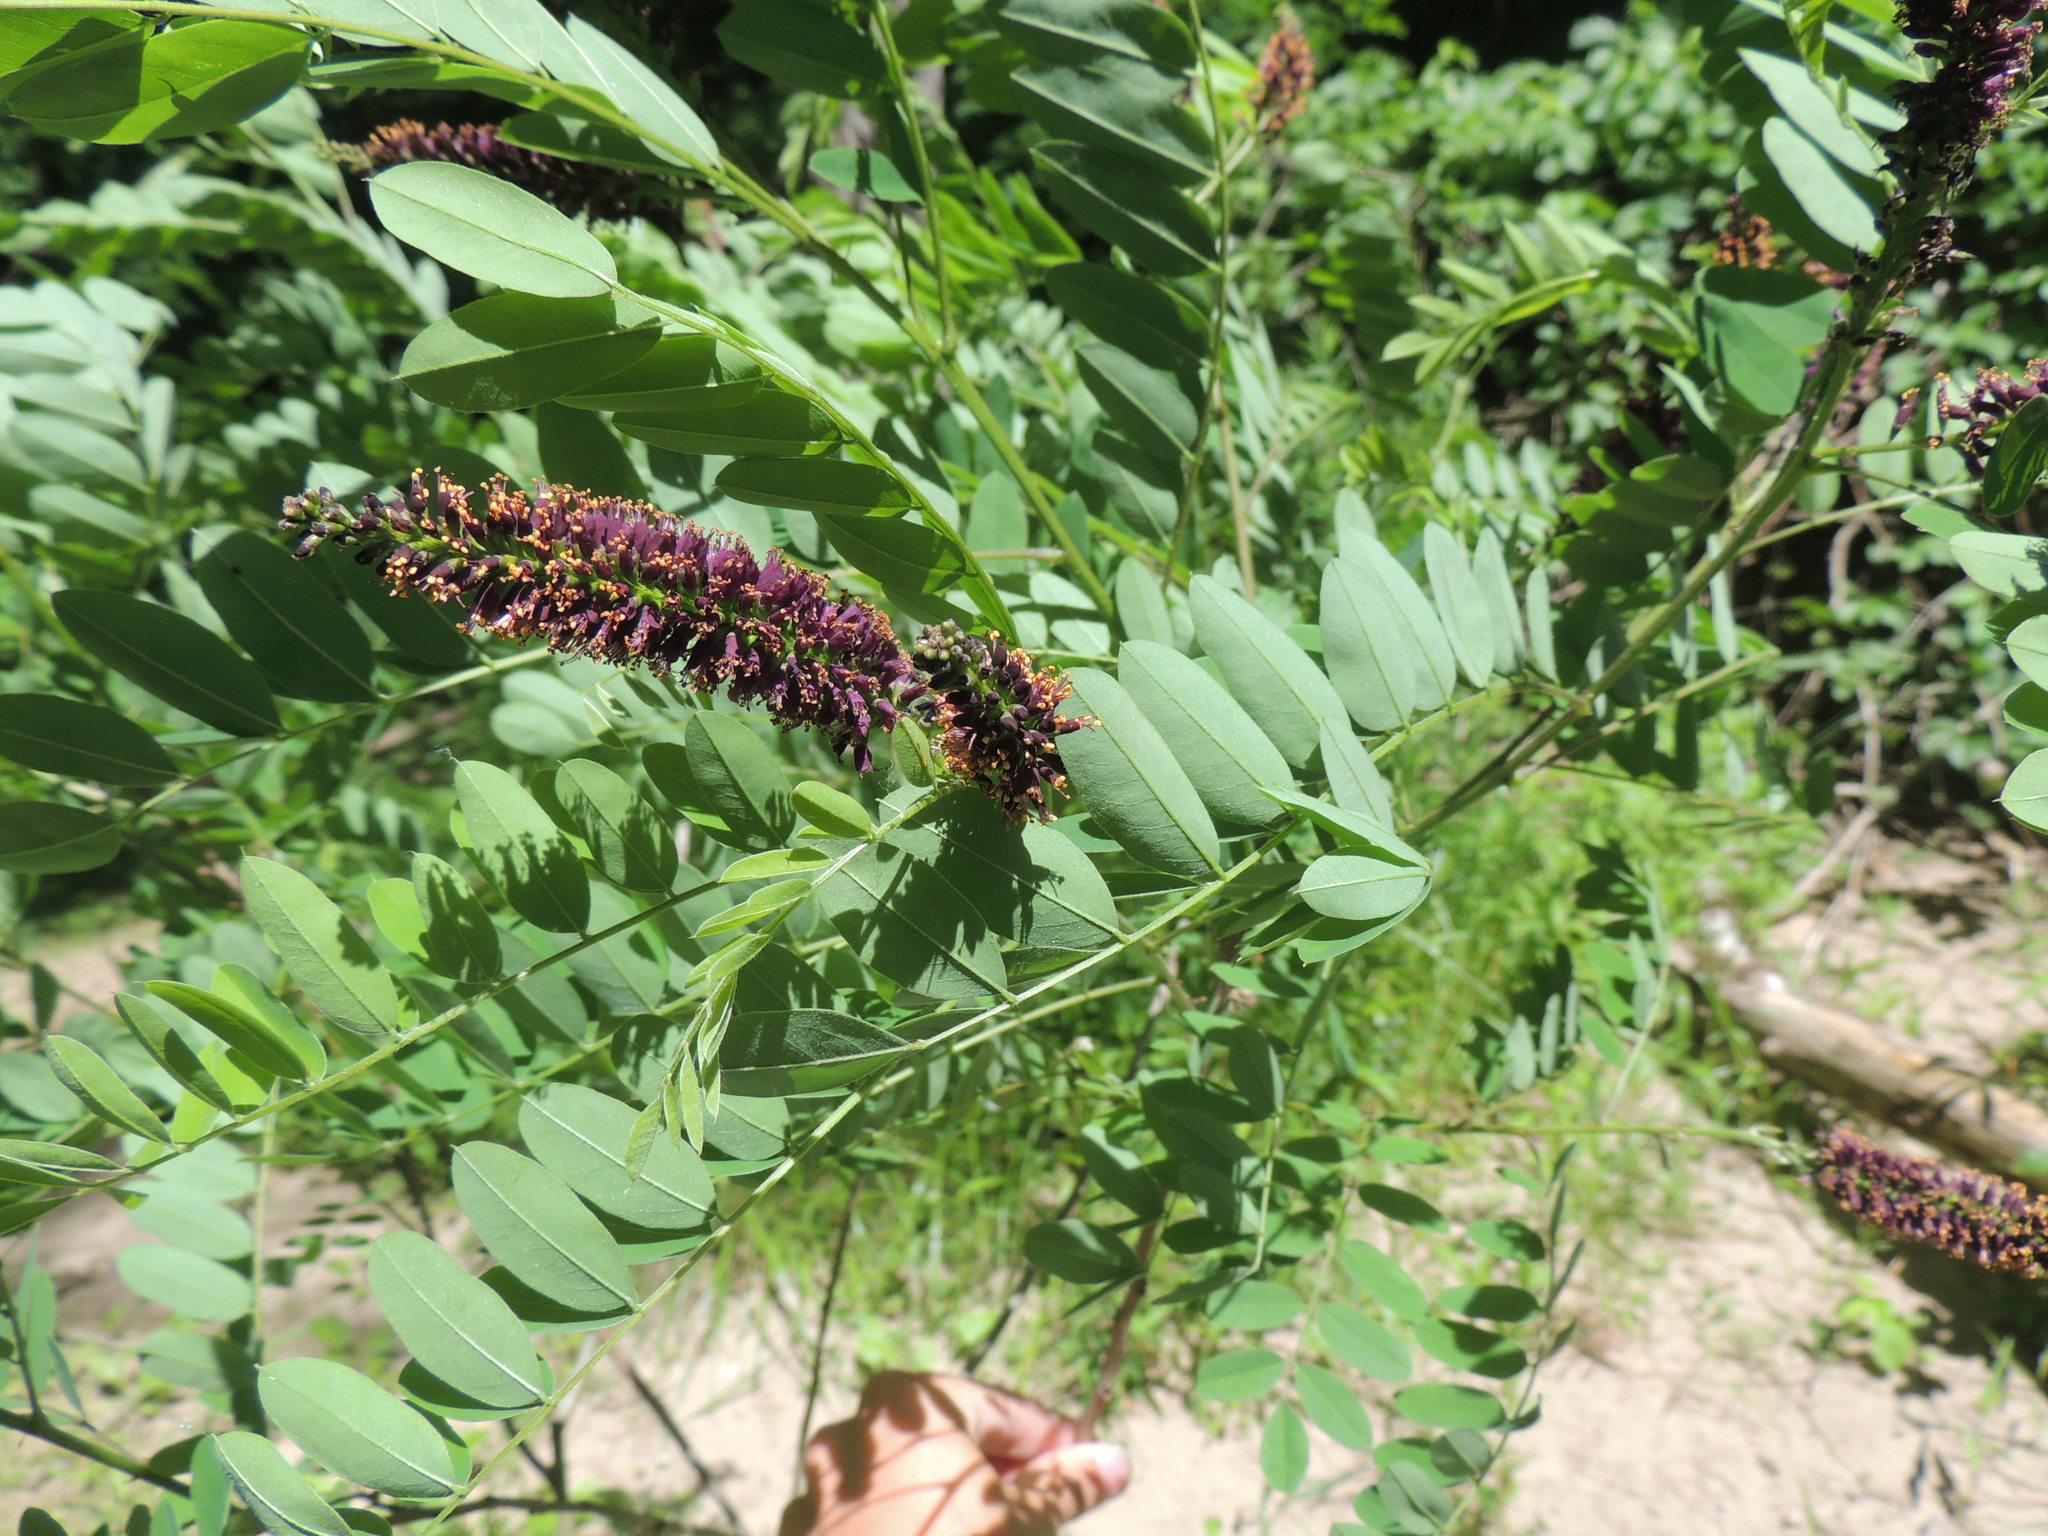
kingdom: Plantae
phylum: Tracheophyta
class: Magnoliopsida
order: Fabales
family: Fabaceae
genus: Amorpha
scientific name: Amorpha fruticosa
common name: False indigo
